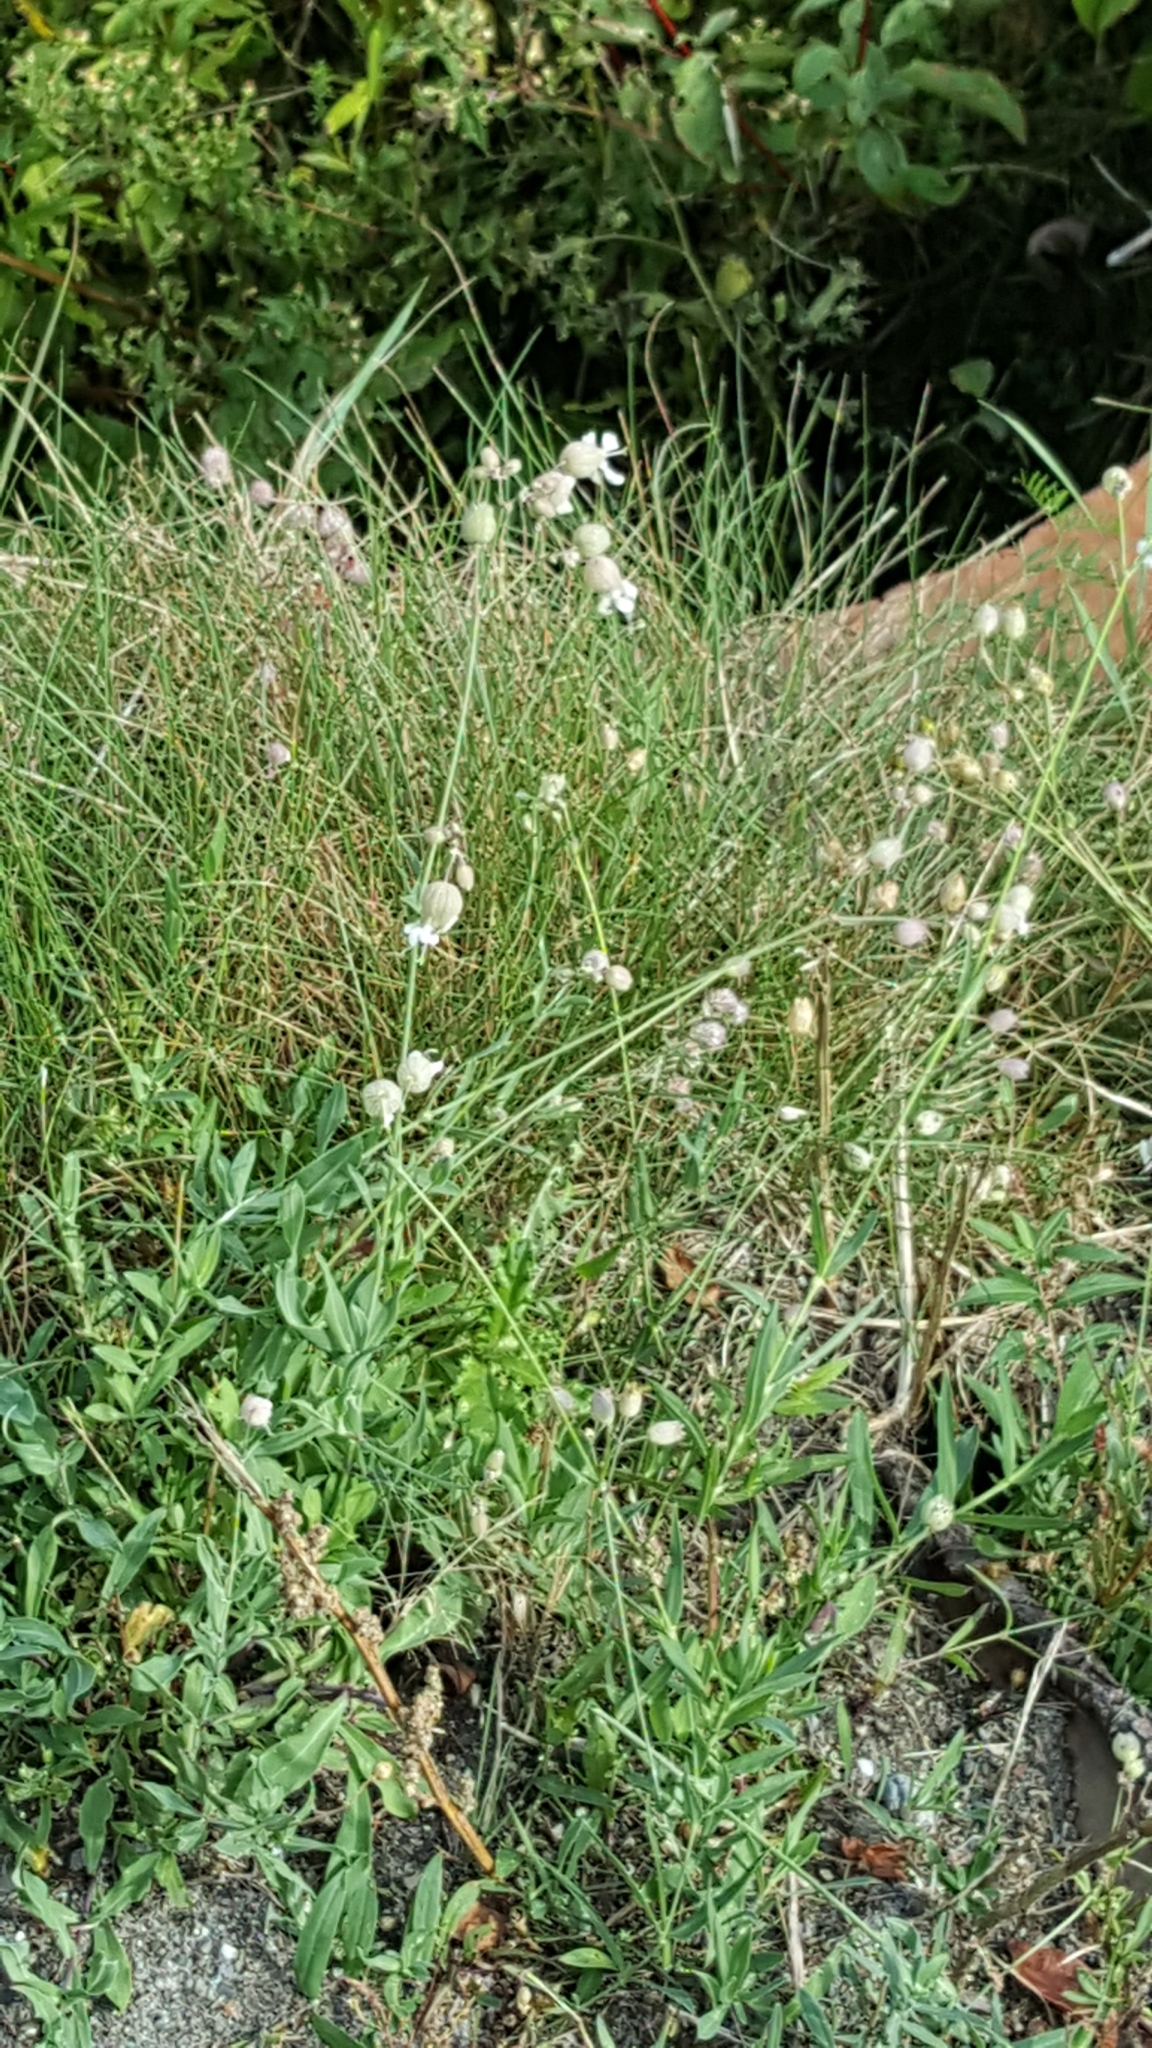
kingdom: Plantae
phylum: Tracheophyta
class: Magnoliopsida
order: Caryophyllales
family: Caryophyllaceae
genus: Silene
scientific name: Silene vulgaris
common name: Bladder campion
